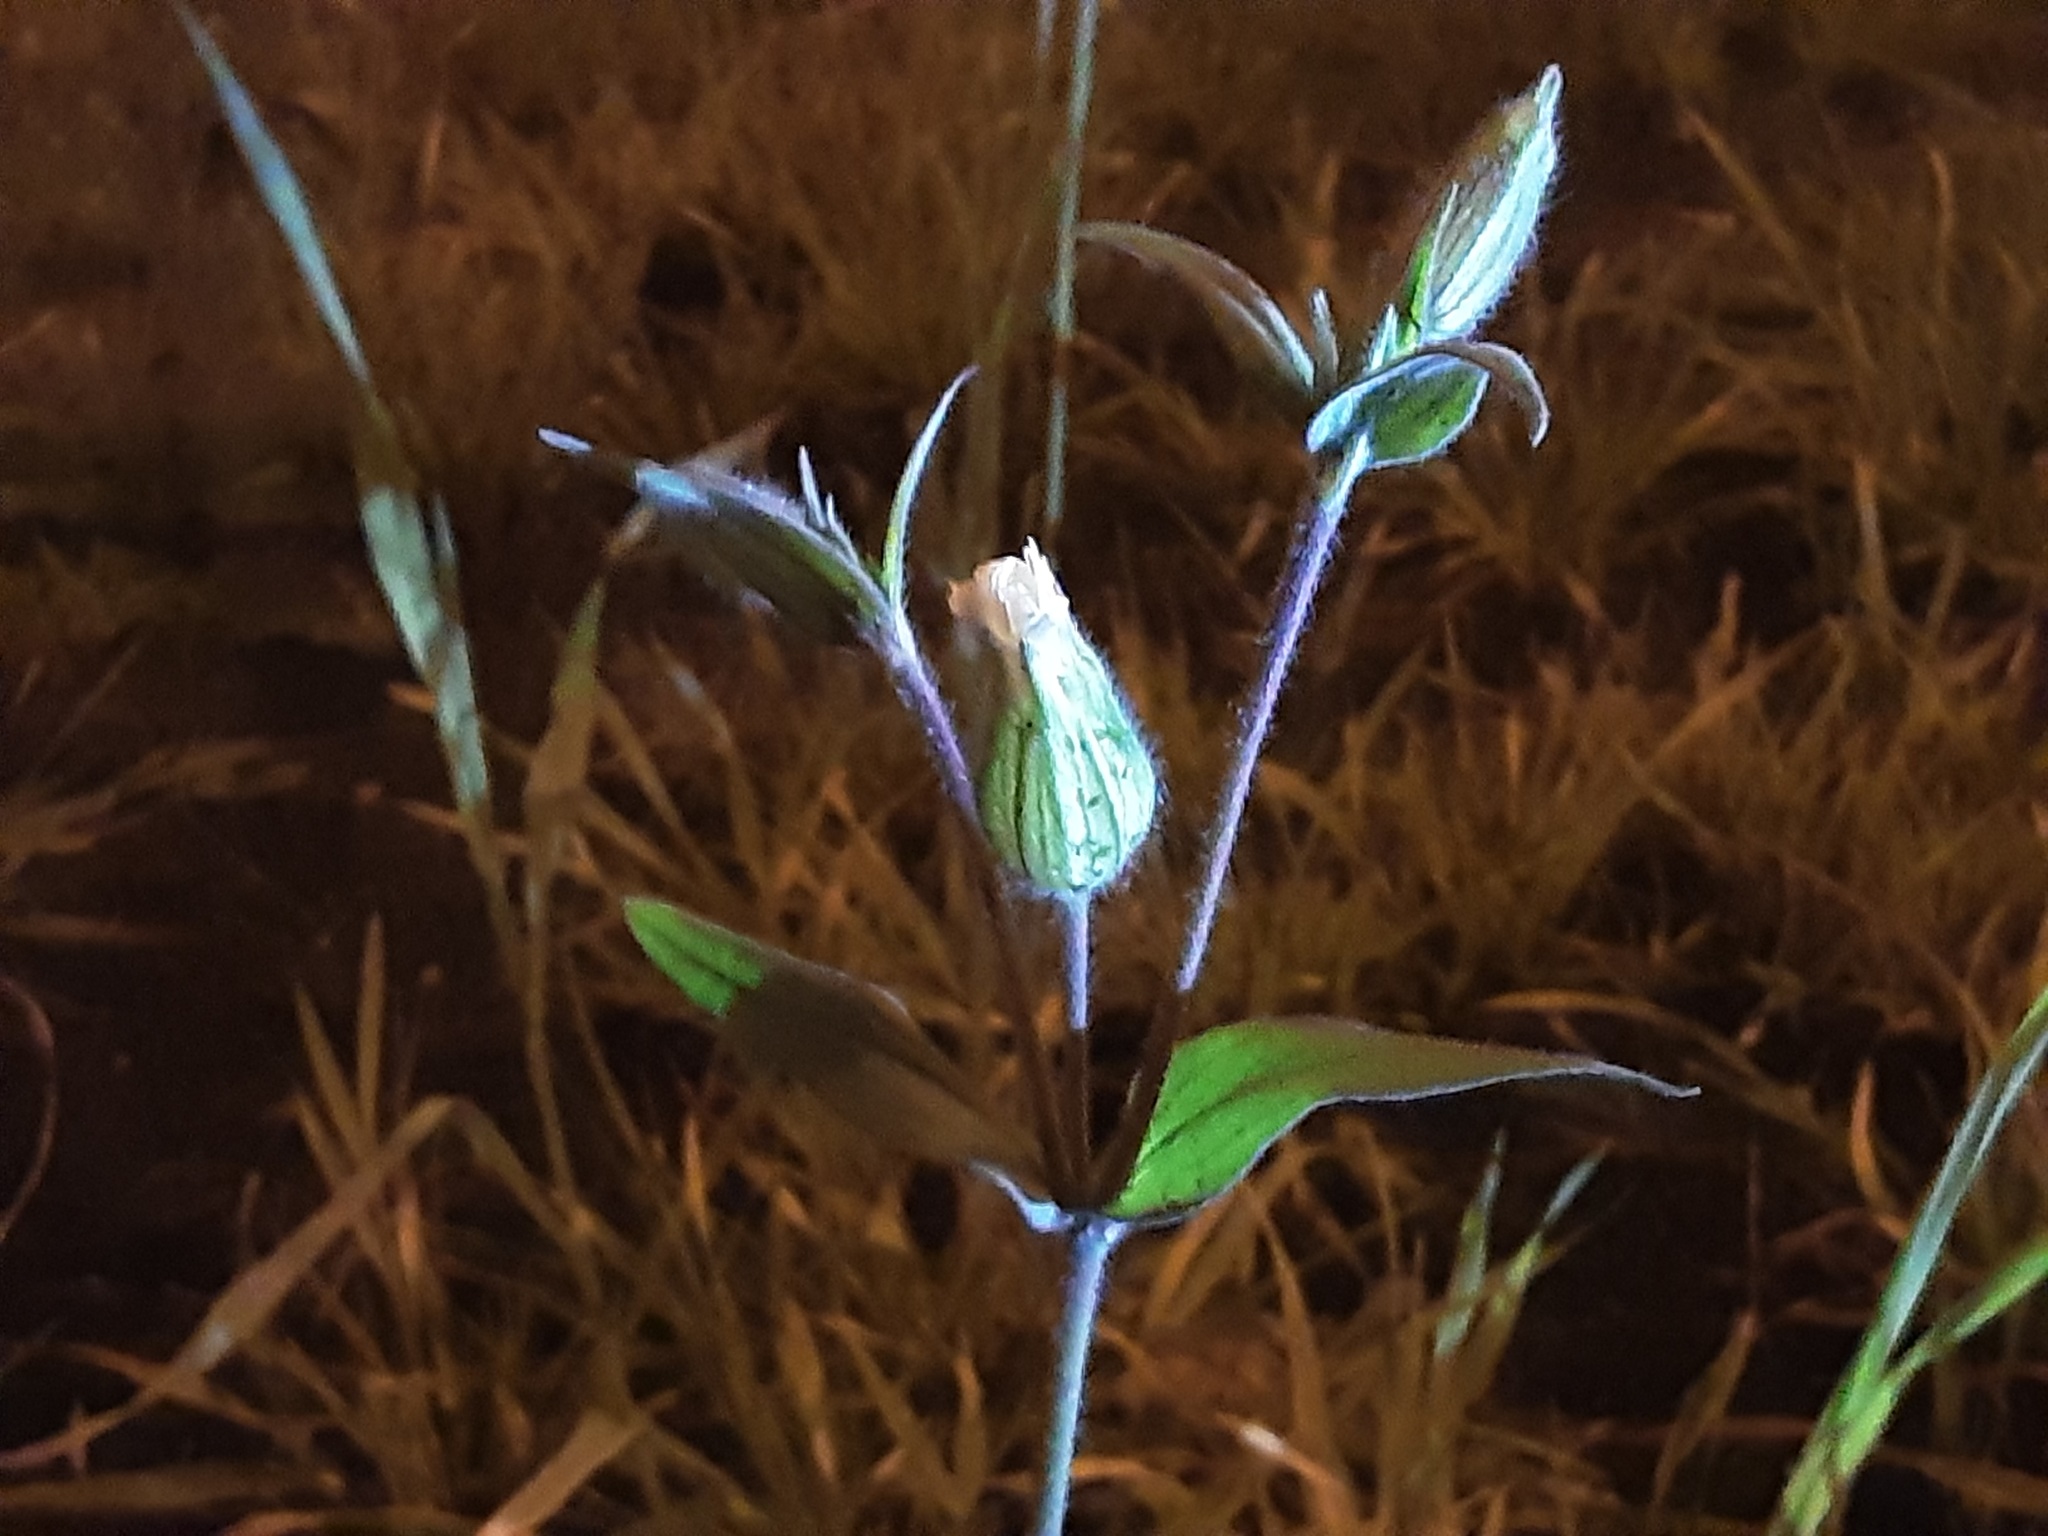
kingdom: Plantae
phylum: Tracheophyta
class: Magnoliopsida
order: Caryophyllales
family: Caryophyllaceae
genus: Silene
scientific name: Silene latifolia
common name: White campion
